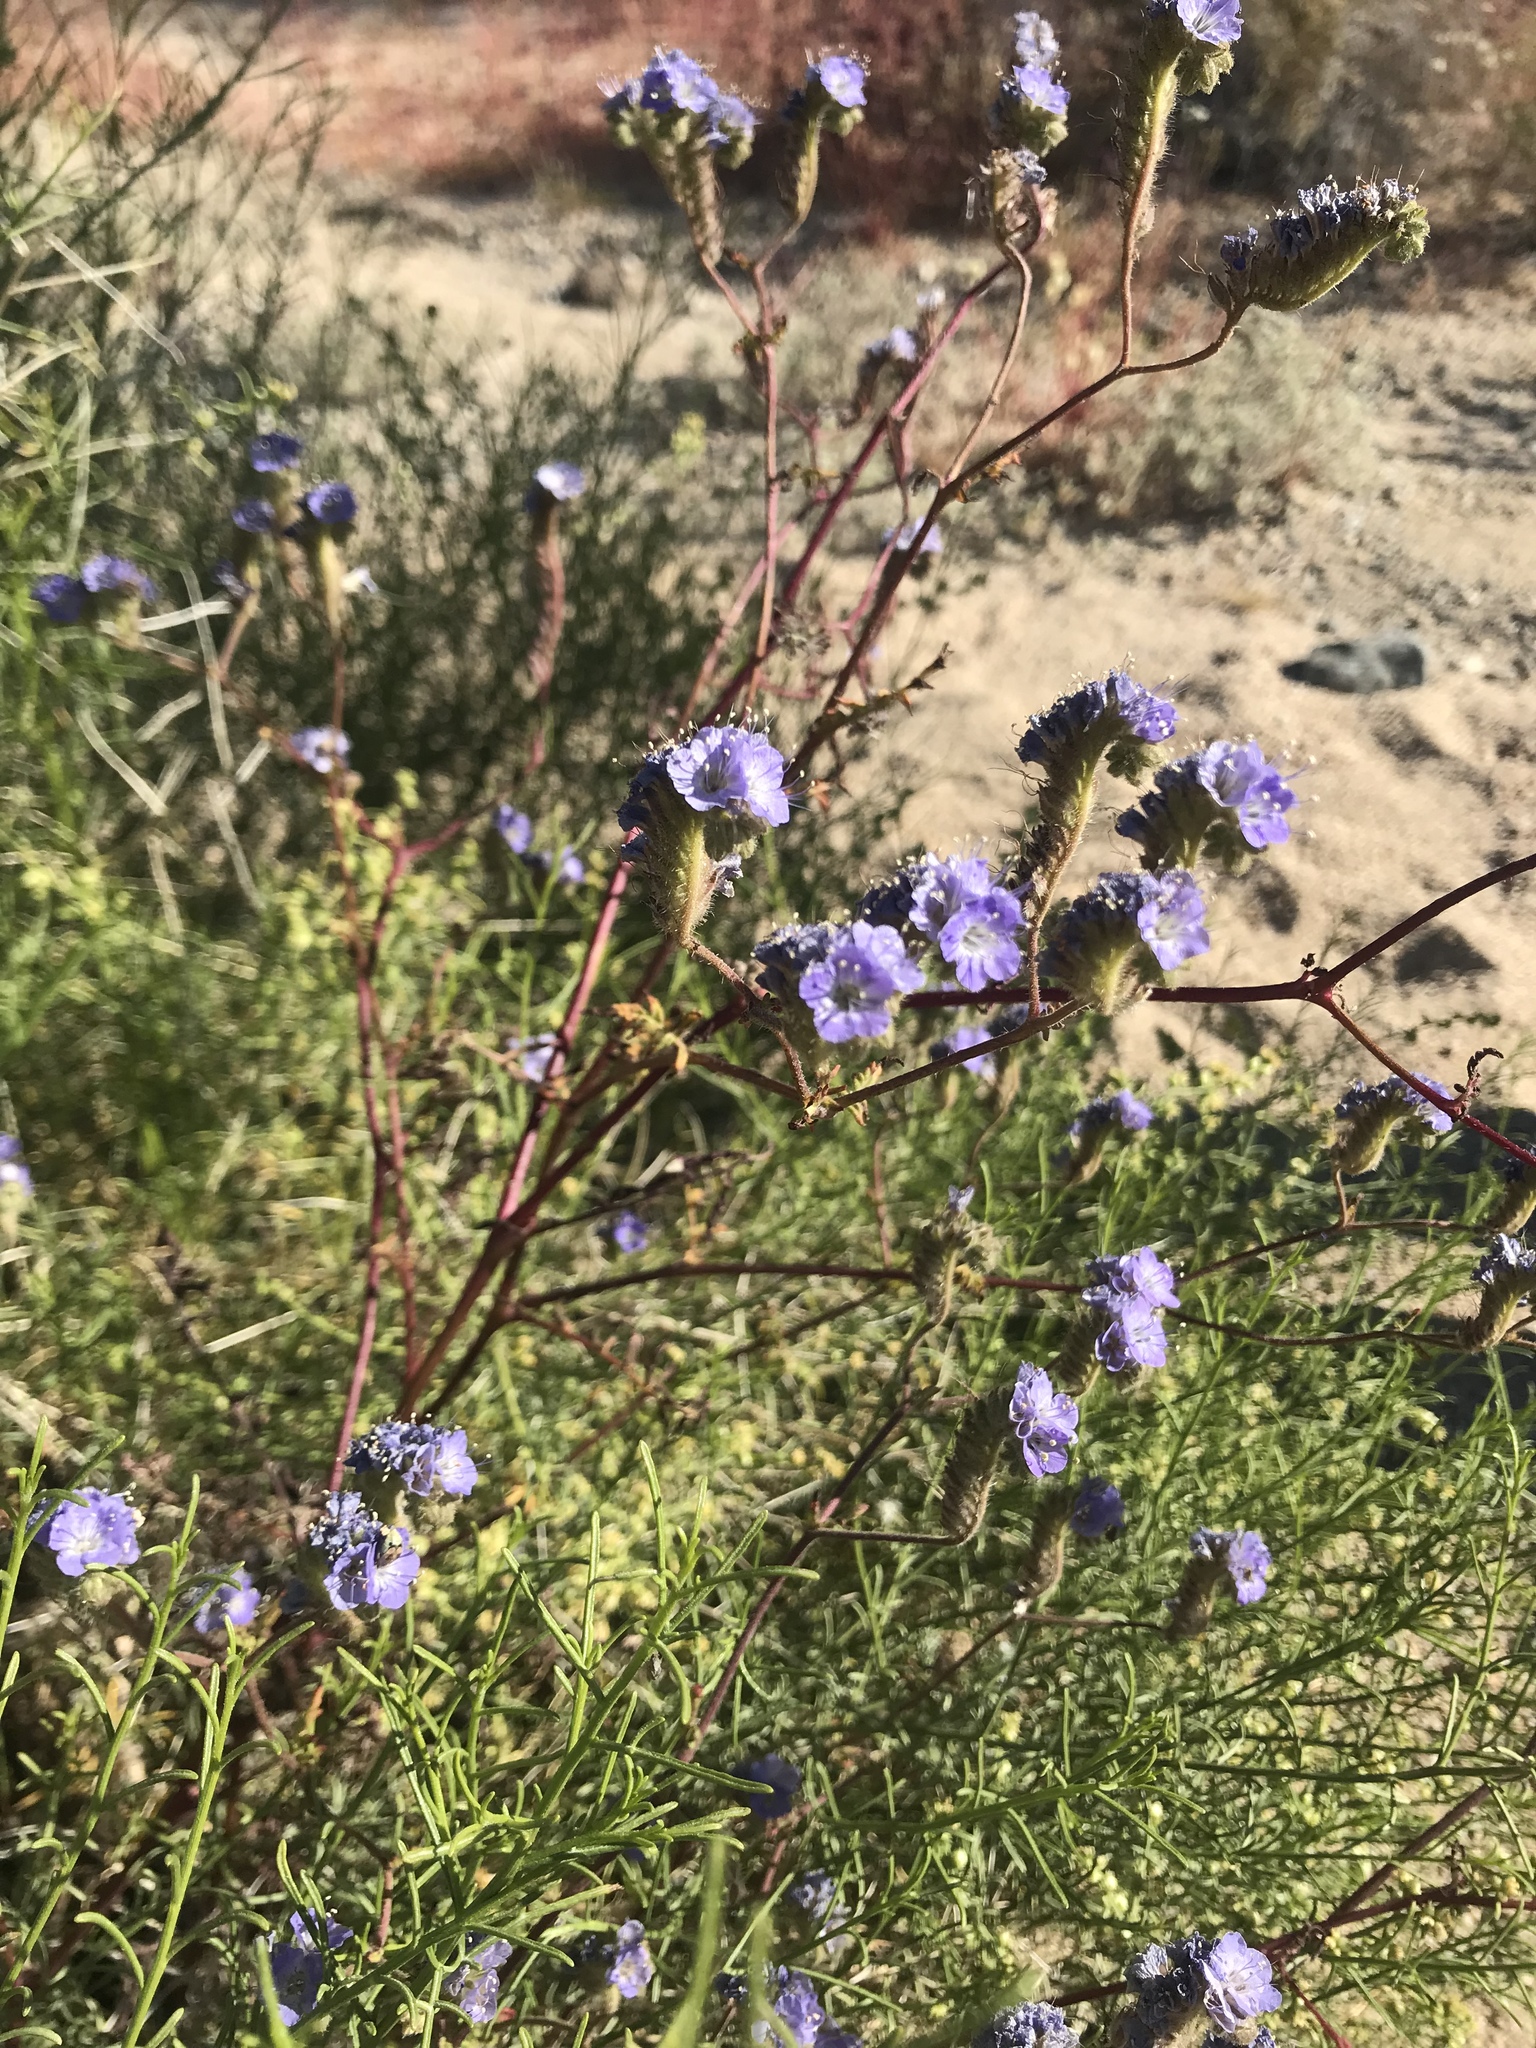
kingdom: Plantae
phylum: Tracheophyta
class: Magnoliopsida
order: Boraginales
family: Hydrophyllaceae
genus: Phacelia
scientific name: Phacelia distans
